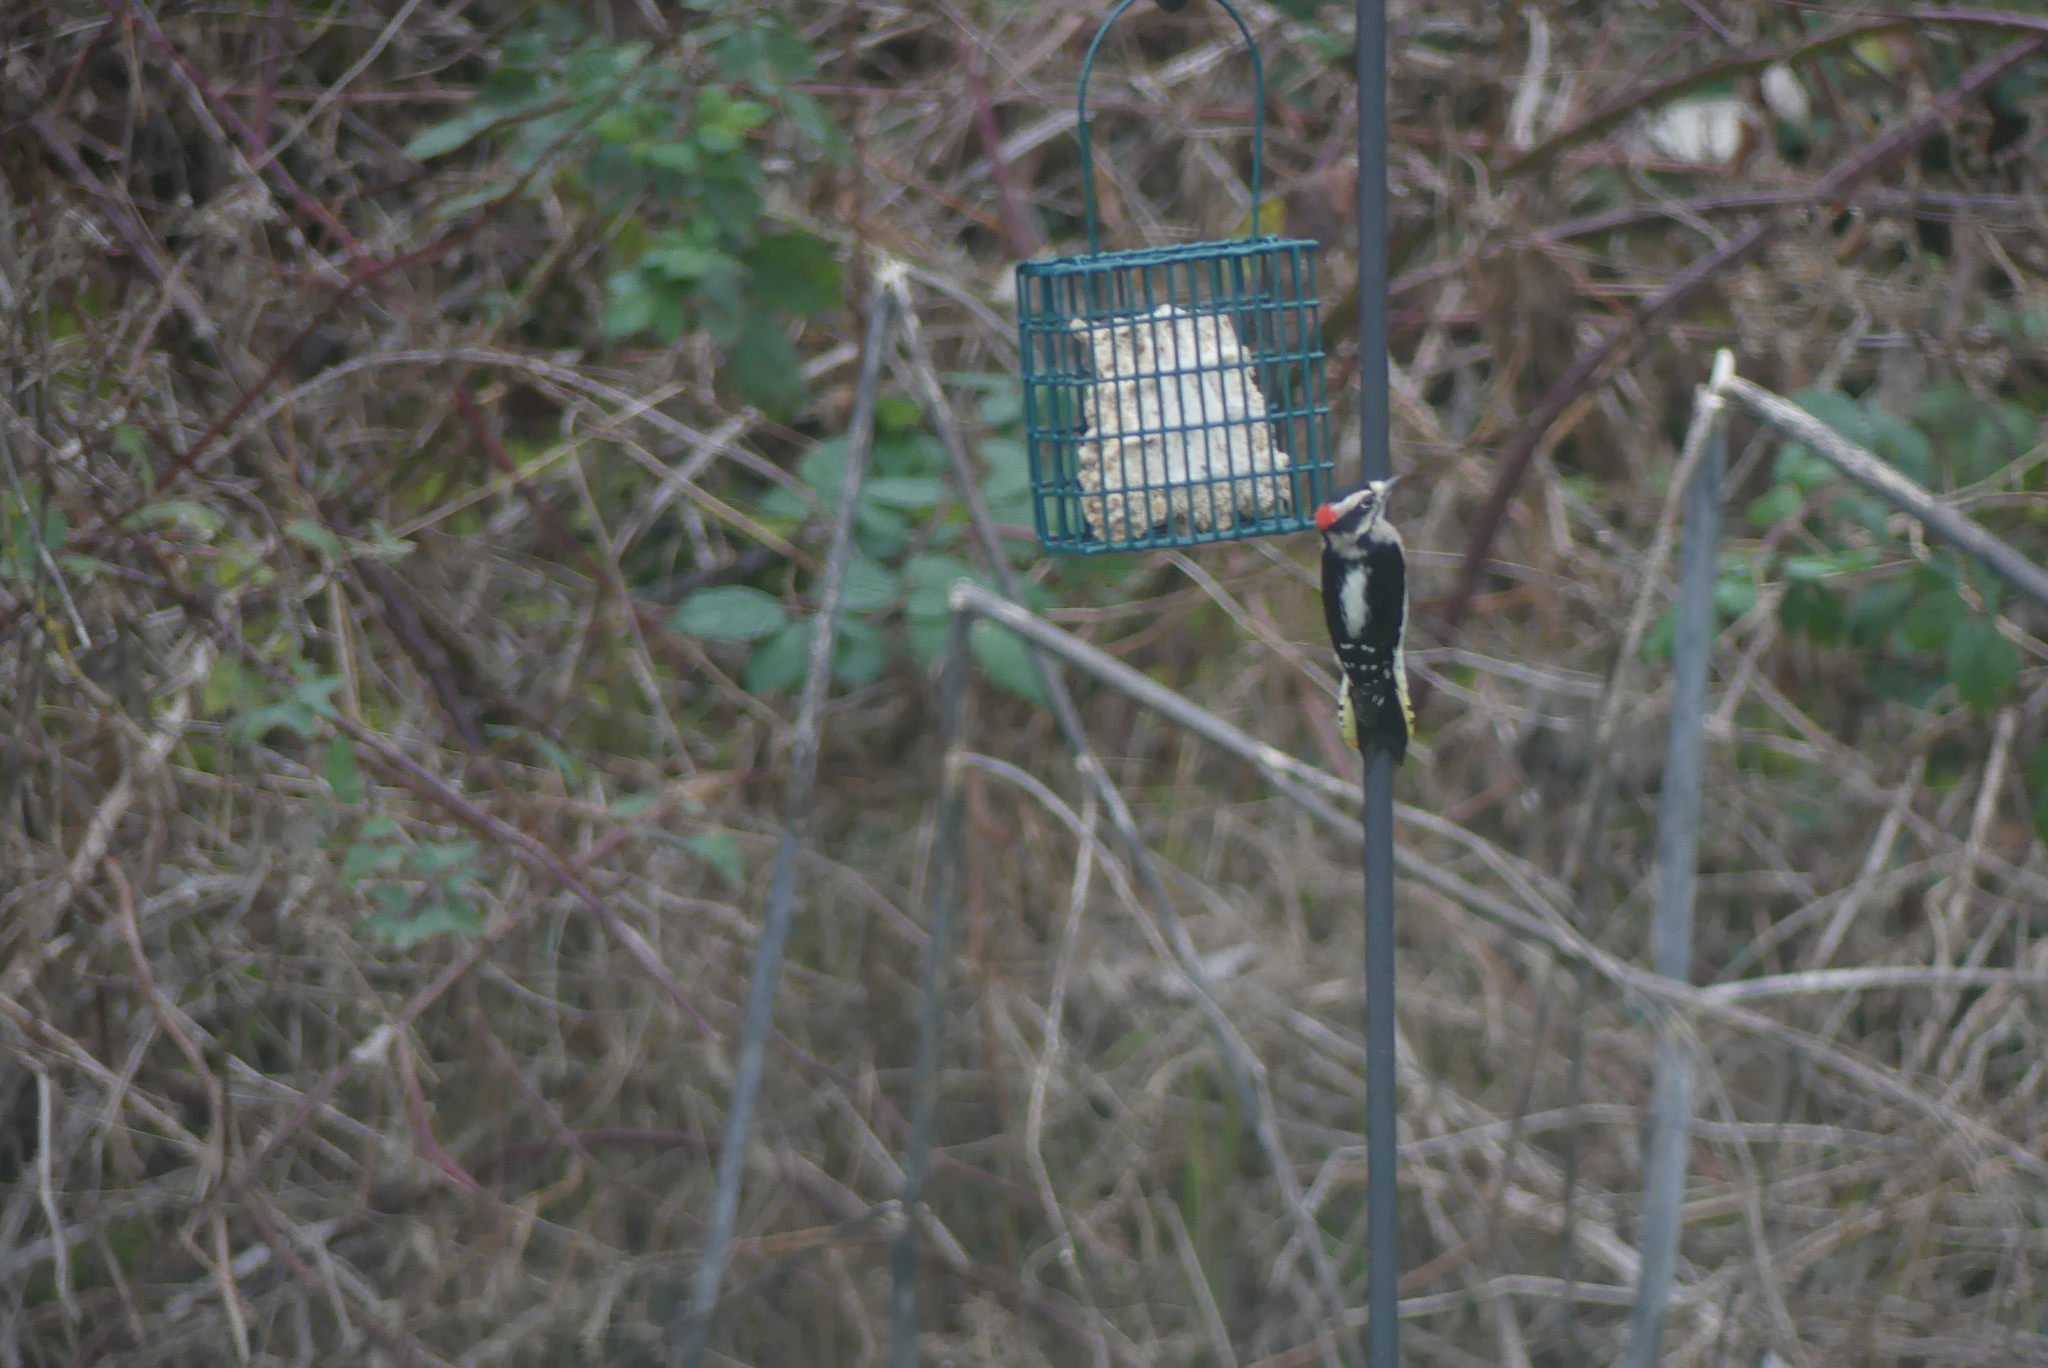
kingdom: Animalia
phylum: Chordata
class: Aves
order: Piciformes
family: Picidae
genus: Dryobates
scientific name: Dryobates pubescens
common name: Downy woodpecker
